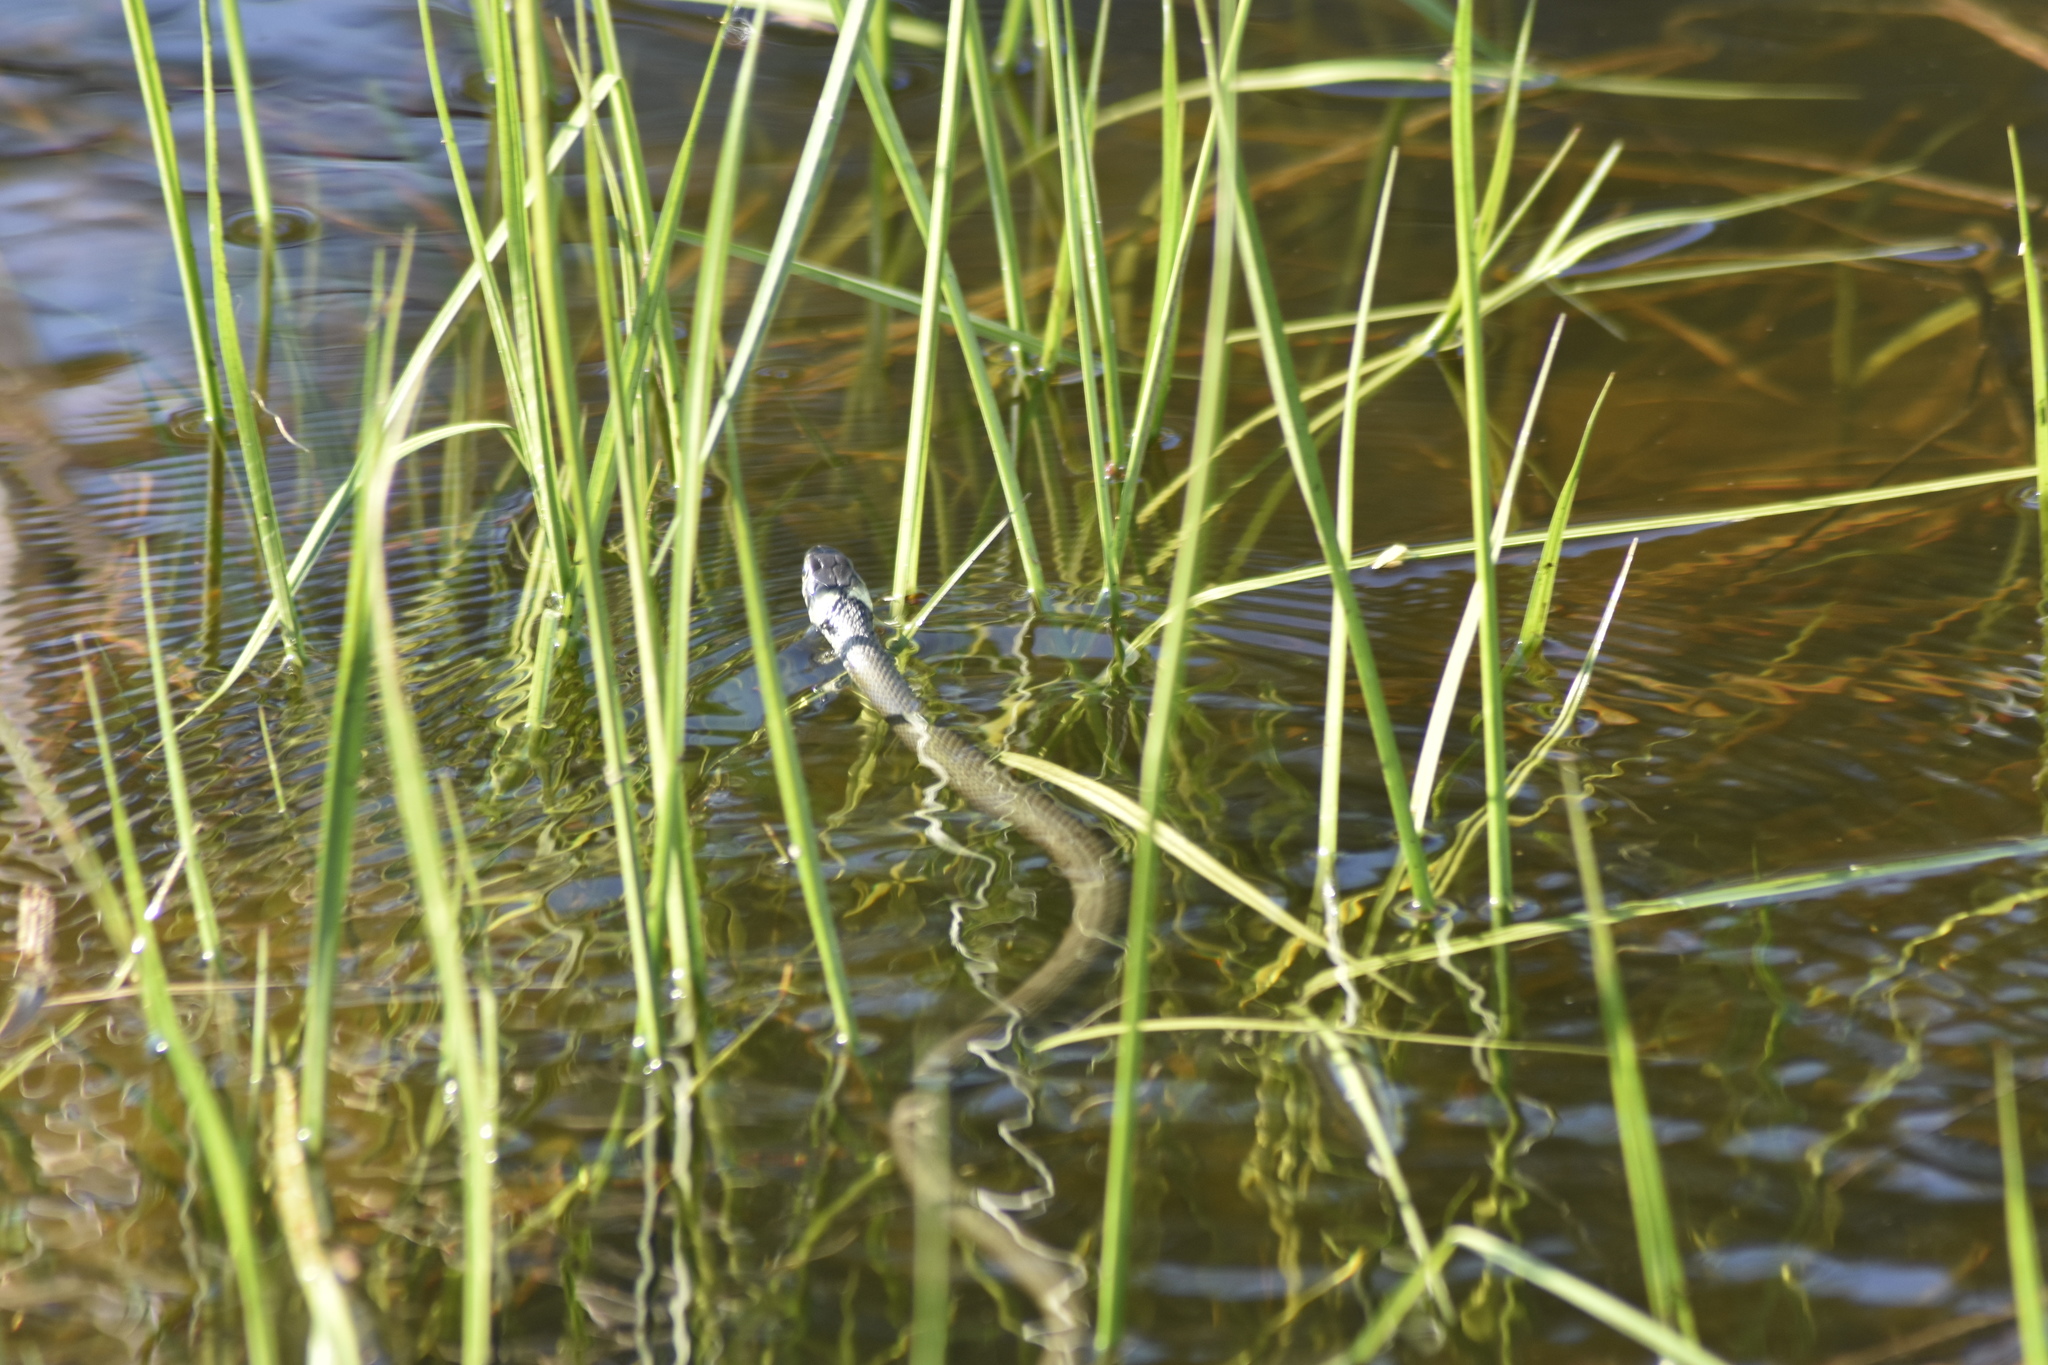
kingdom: Animalia
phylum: Chordata
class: Squamata
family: Colubridae
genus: Natrix
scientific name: Natrix
